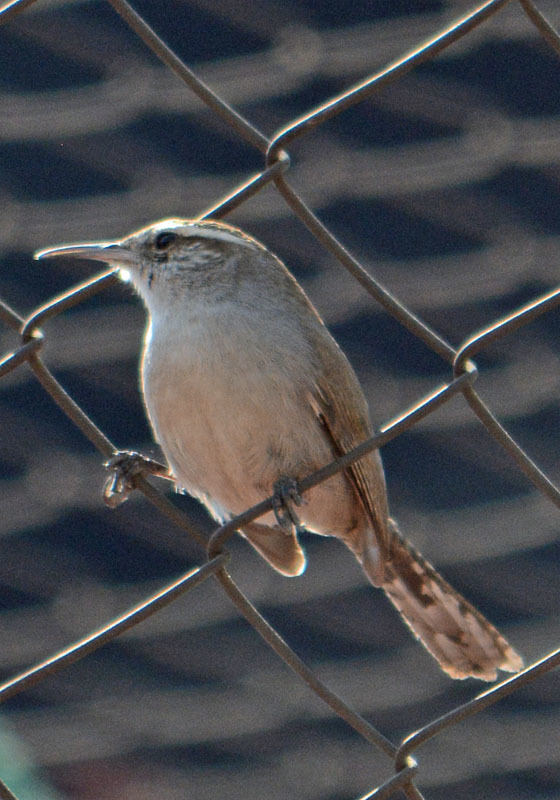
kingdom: Animalia
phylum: Chordata
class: Aves
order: Passeriformes
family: Troglodytidae
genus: Thryomanes
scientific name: Thryomanes bewickii
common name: Bewick's wren
